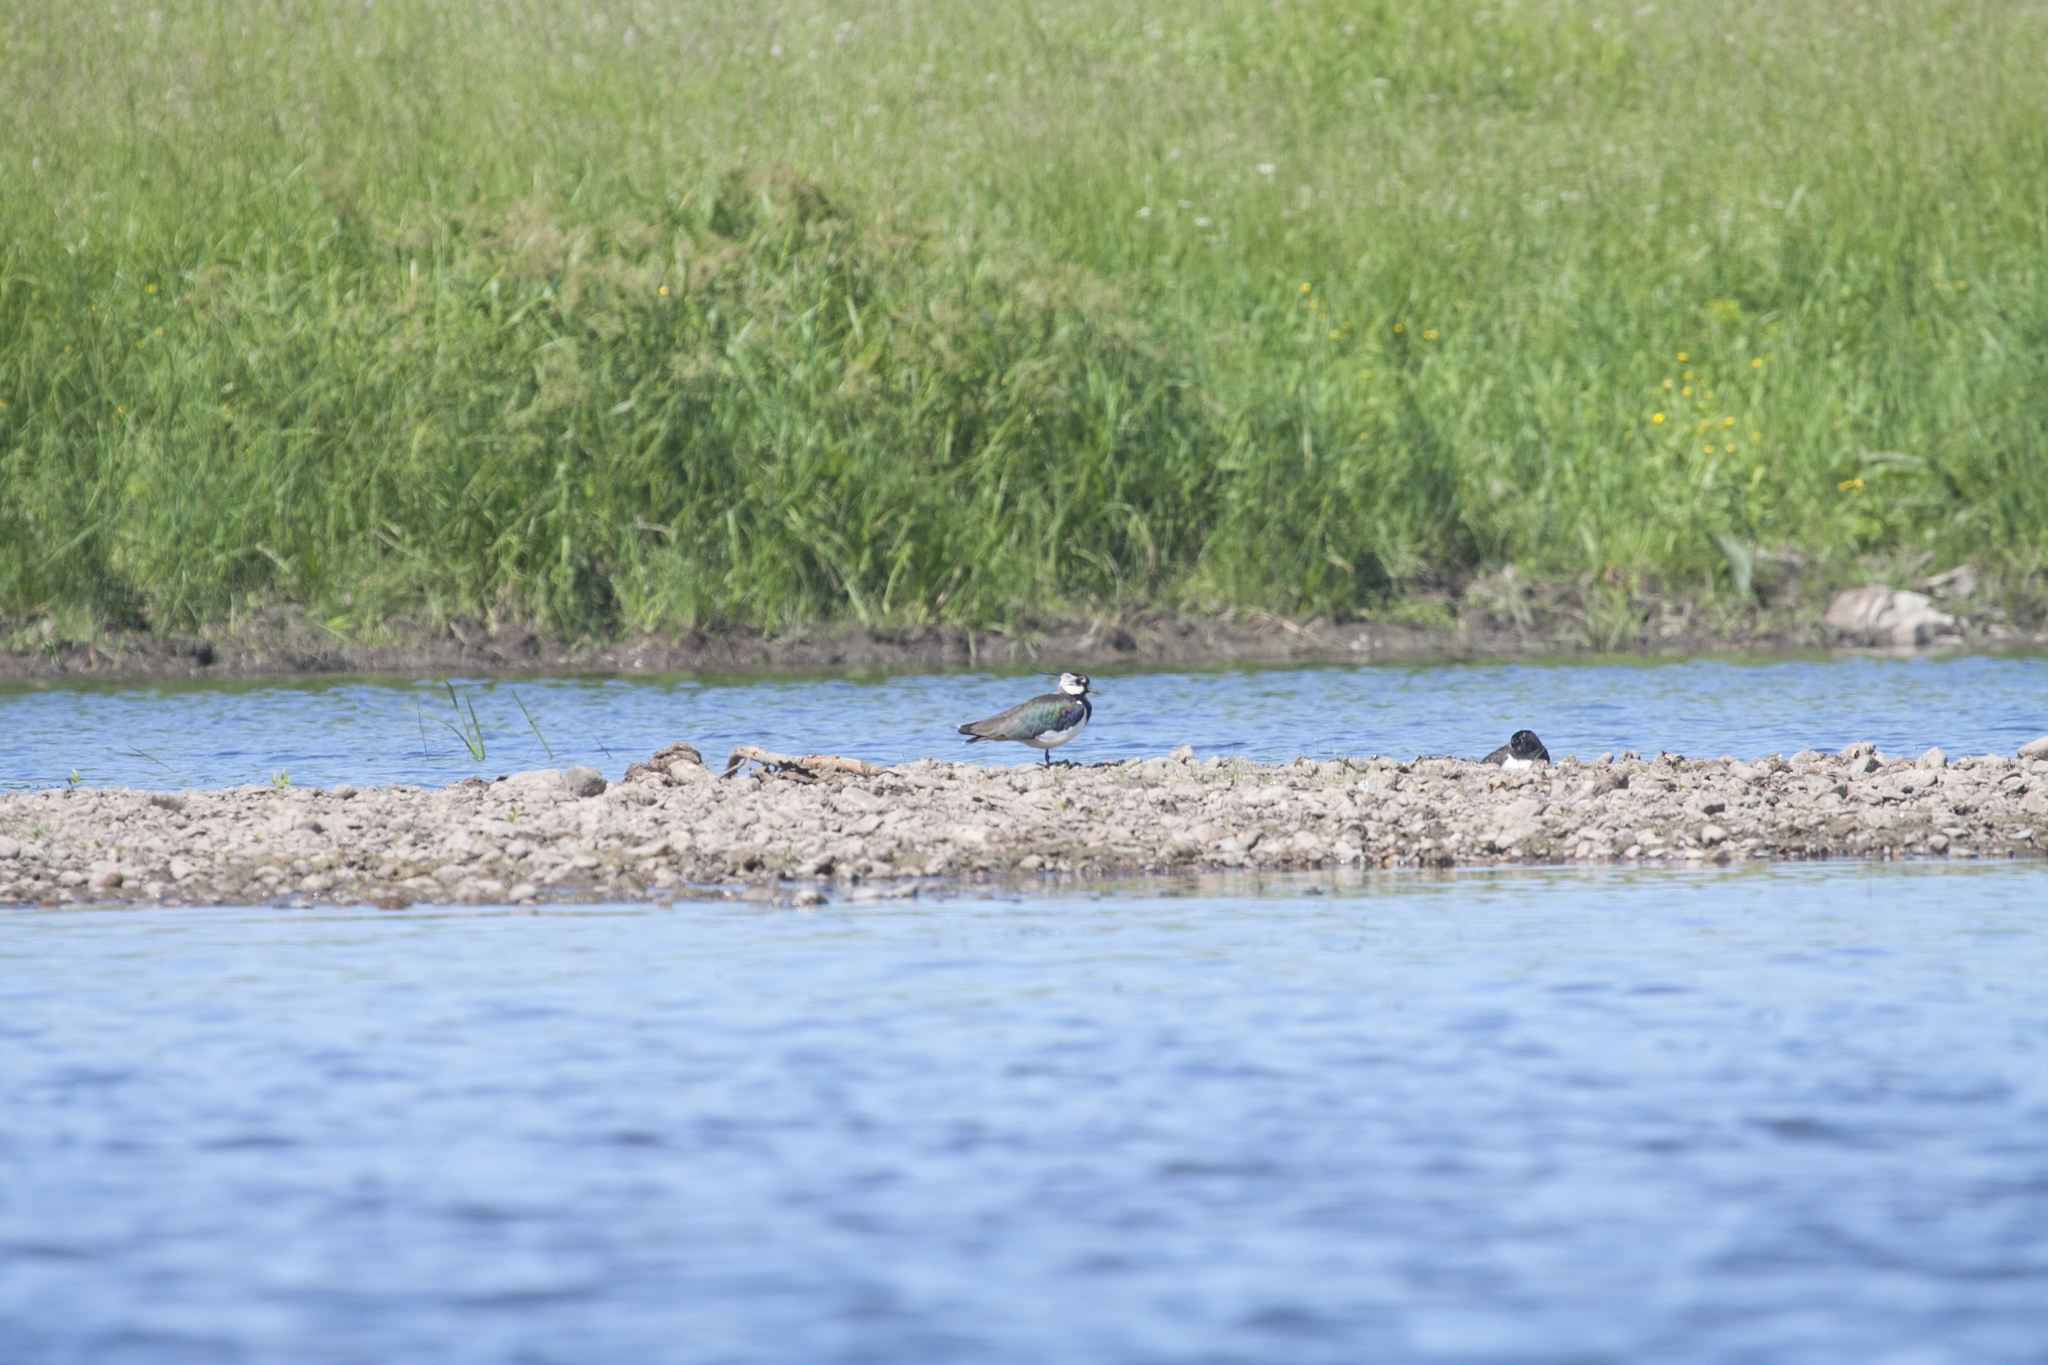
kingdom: Animalia
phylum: Chordata
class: Aves
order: Charadriiformes
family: Charadriidae
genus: Vanellus
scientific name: Vanellus vanellus
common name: Northern lapwing
